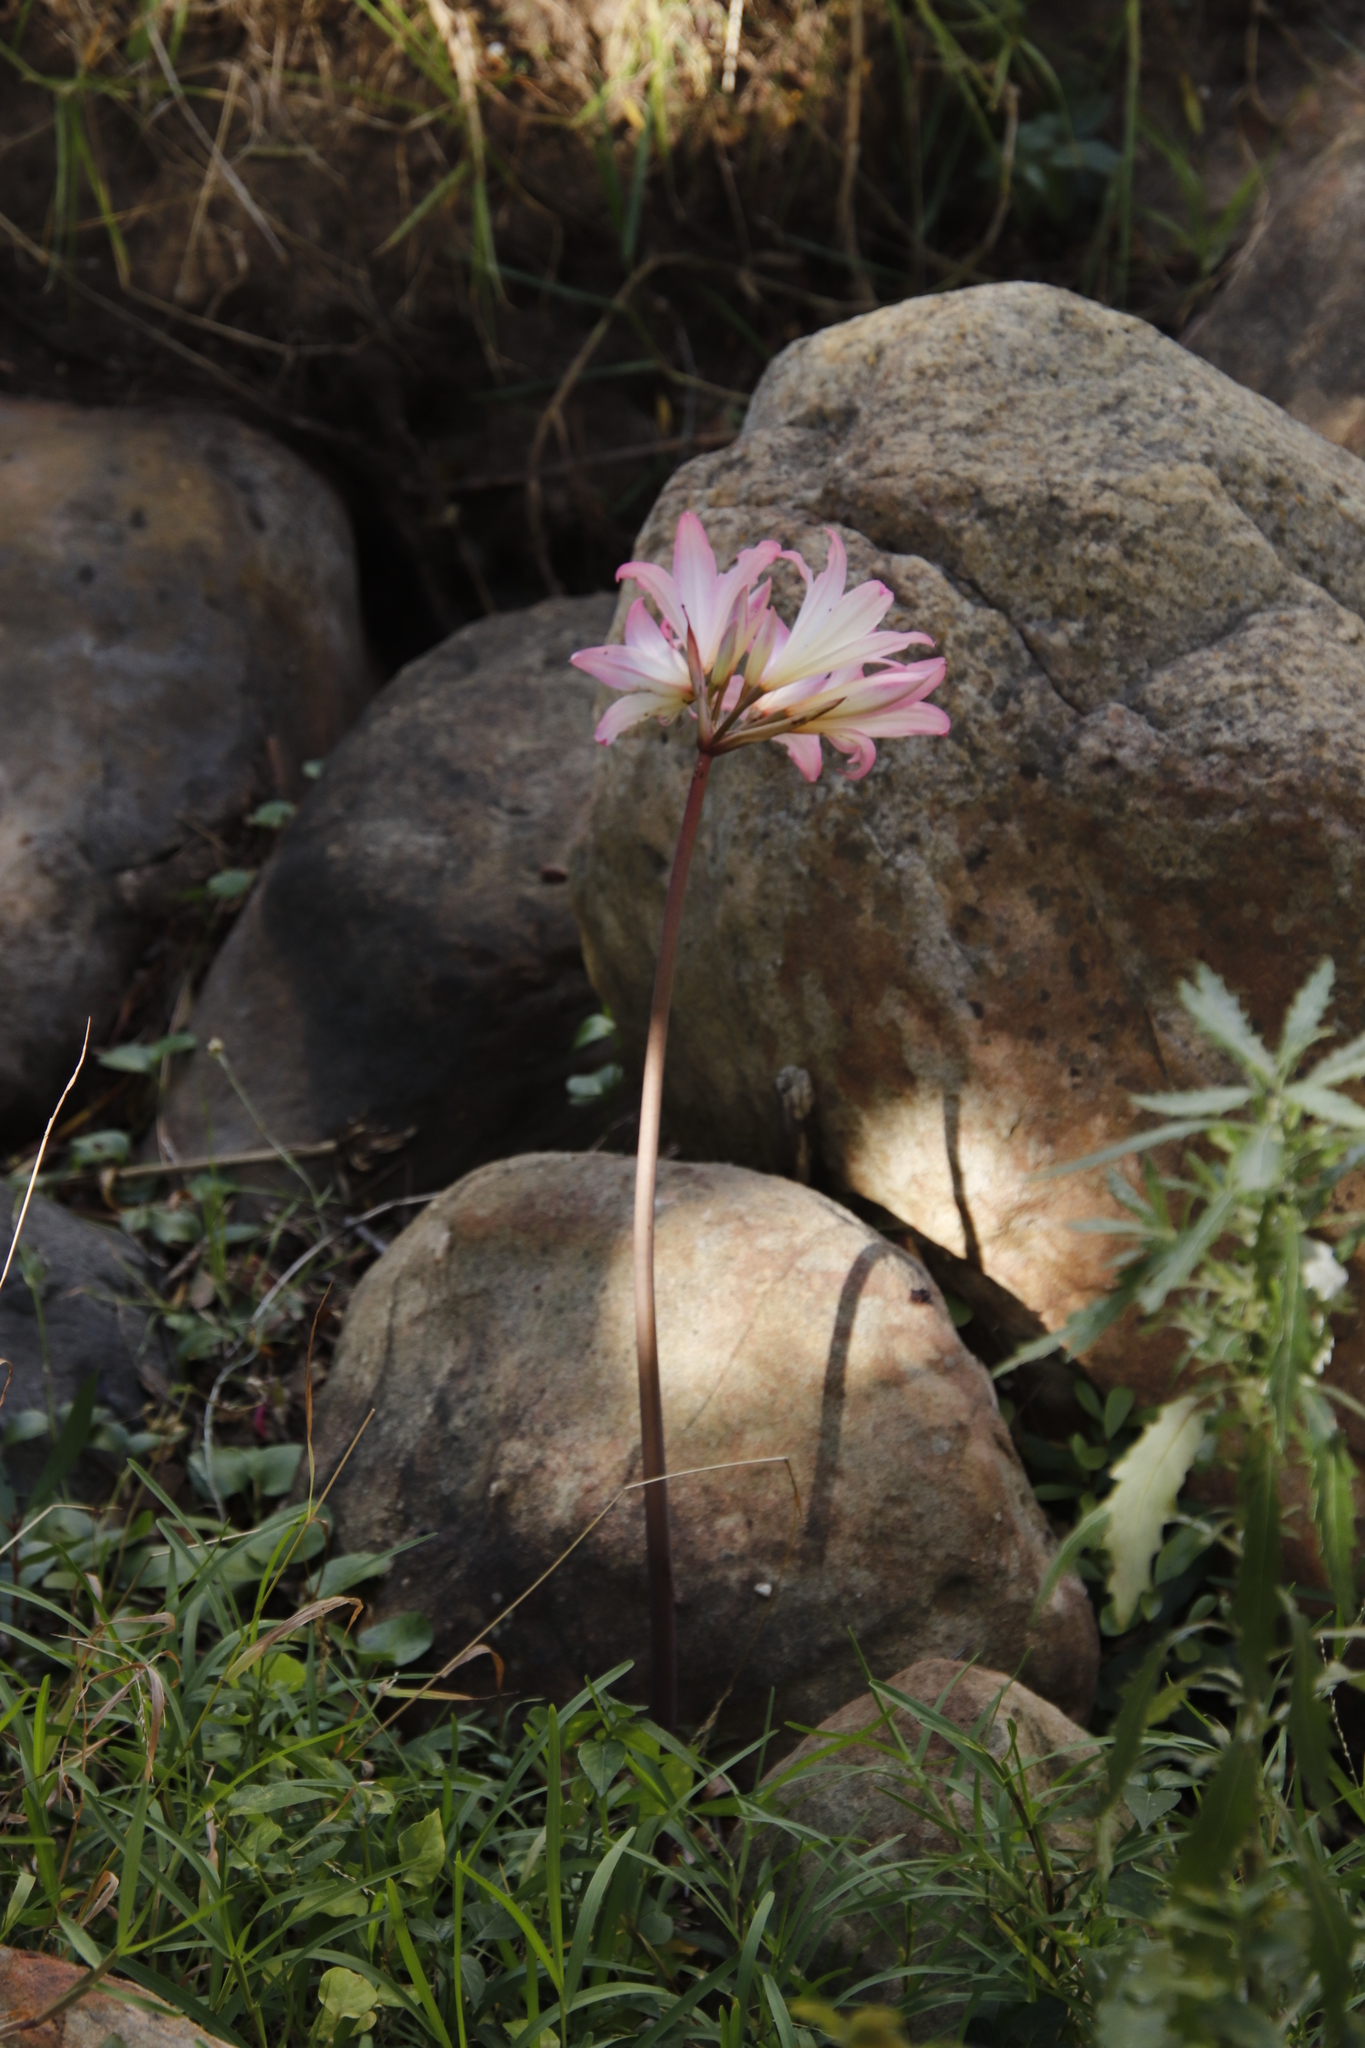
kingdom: Plantae
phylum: Tracheophyta
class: Liliopsida
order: Asparagales
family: Amaryllidaceae
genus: Amaryllis
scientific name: Amaryllis belladonna
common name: Jersey lily
